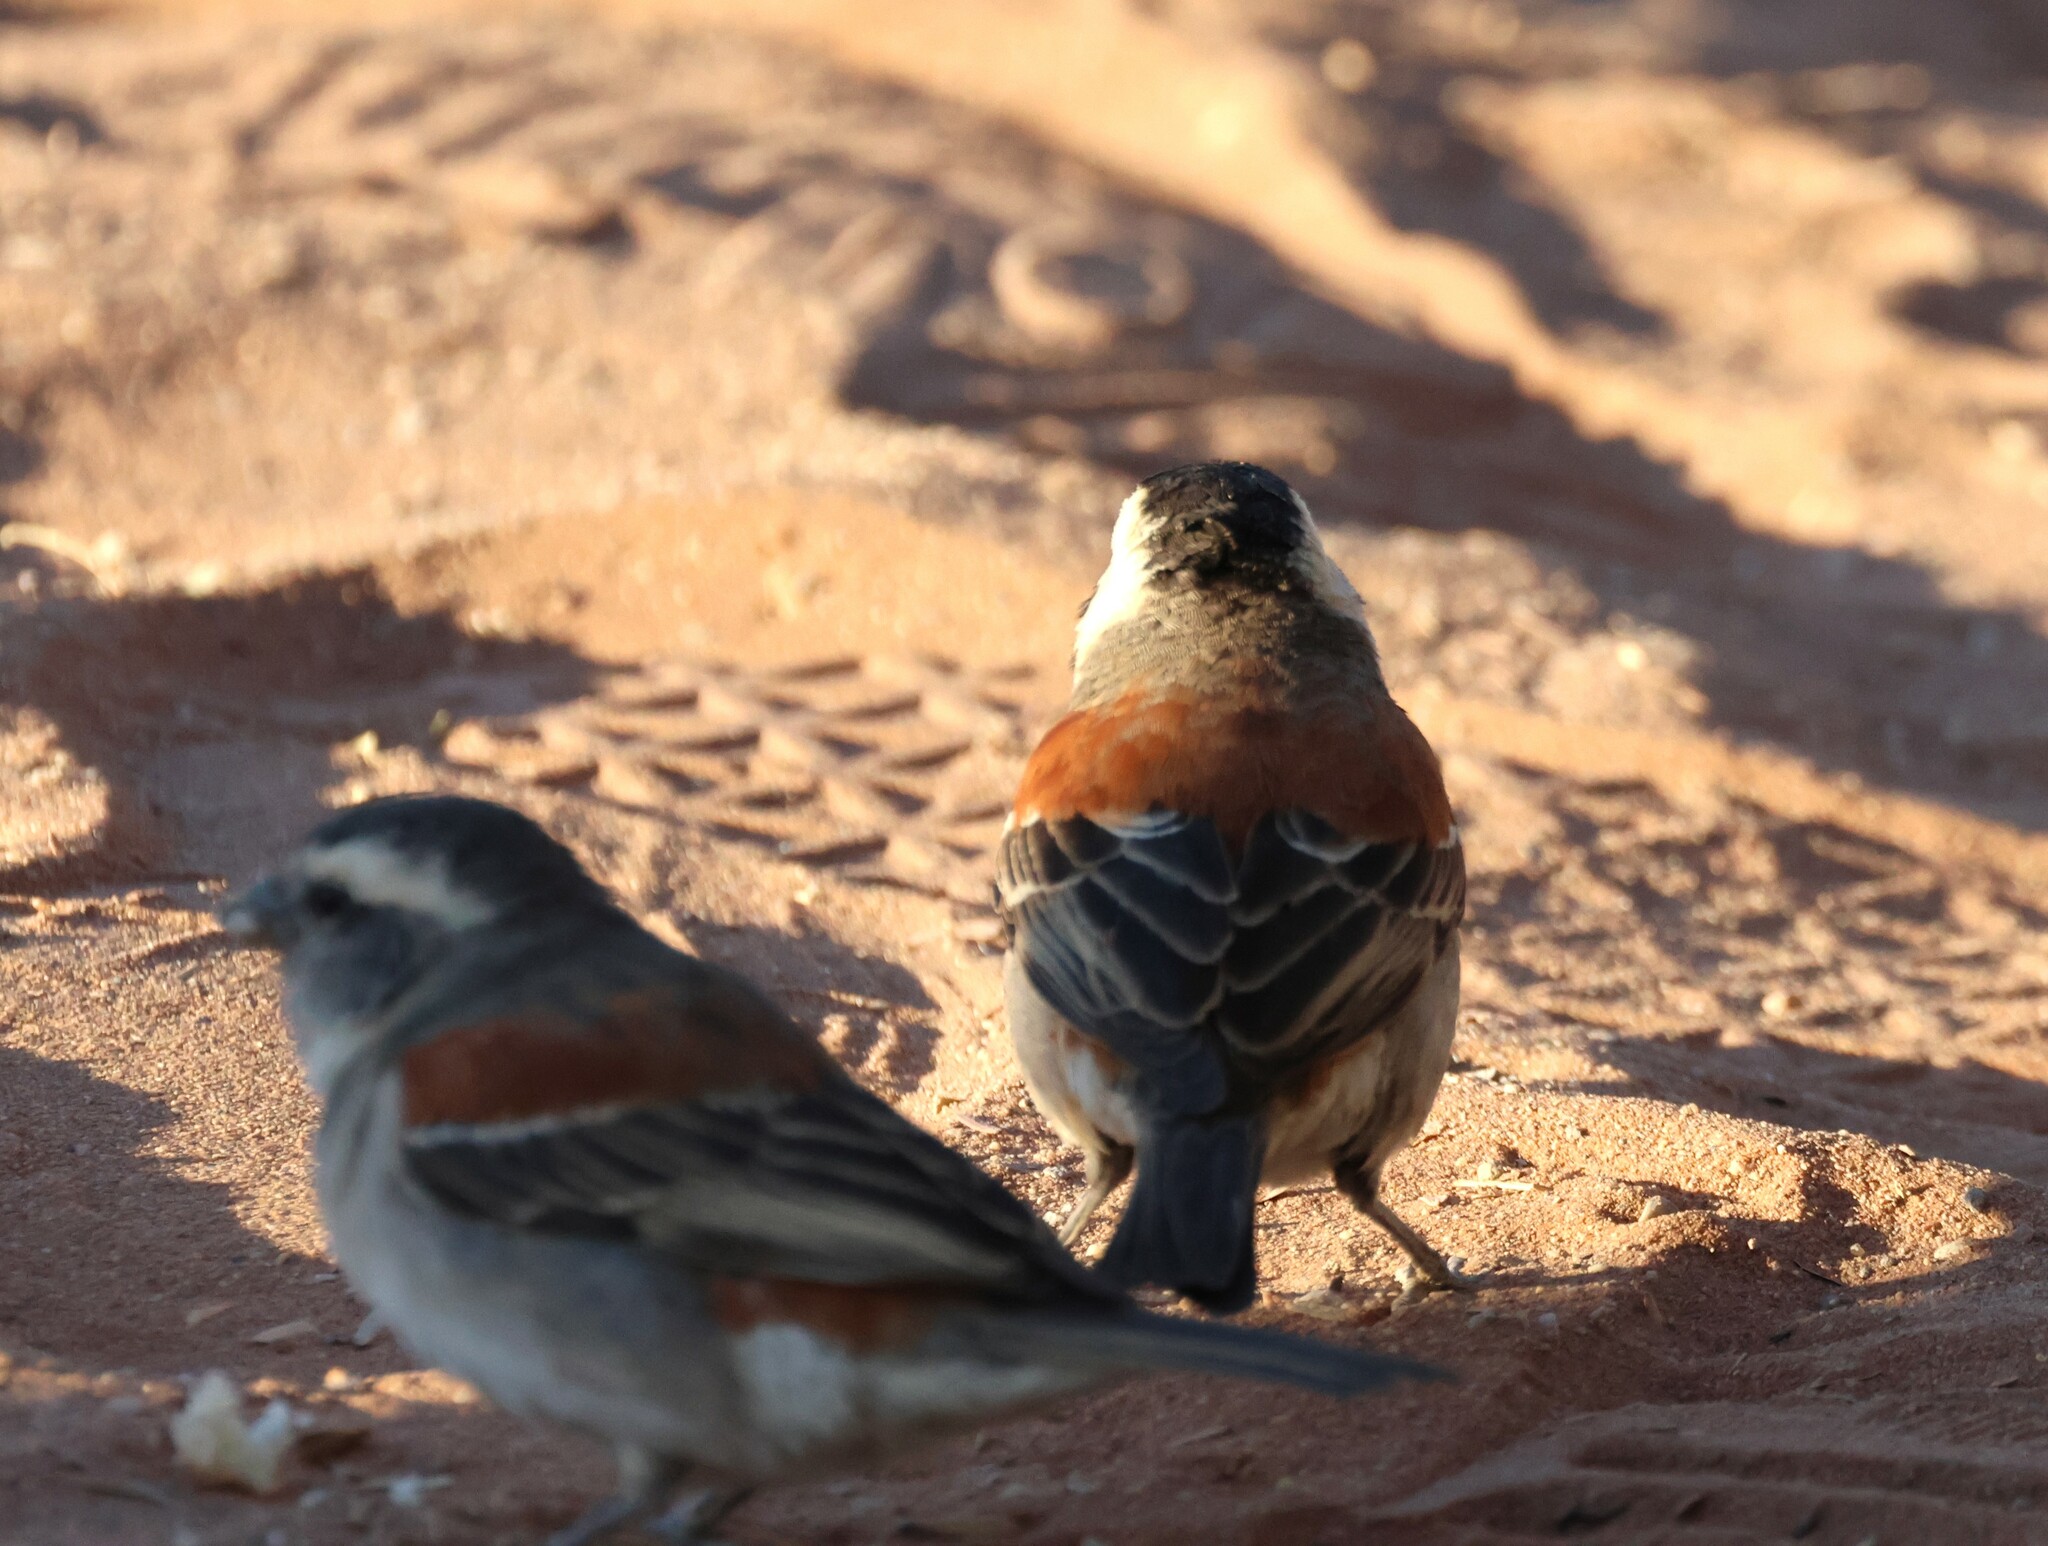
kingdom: Animalia
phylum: Chordata
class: Aves
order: Passeriformes
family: Passeridae
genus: Passer
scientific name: Passer melanurus
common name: Cape sparrow
